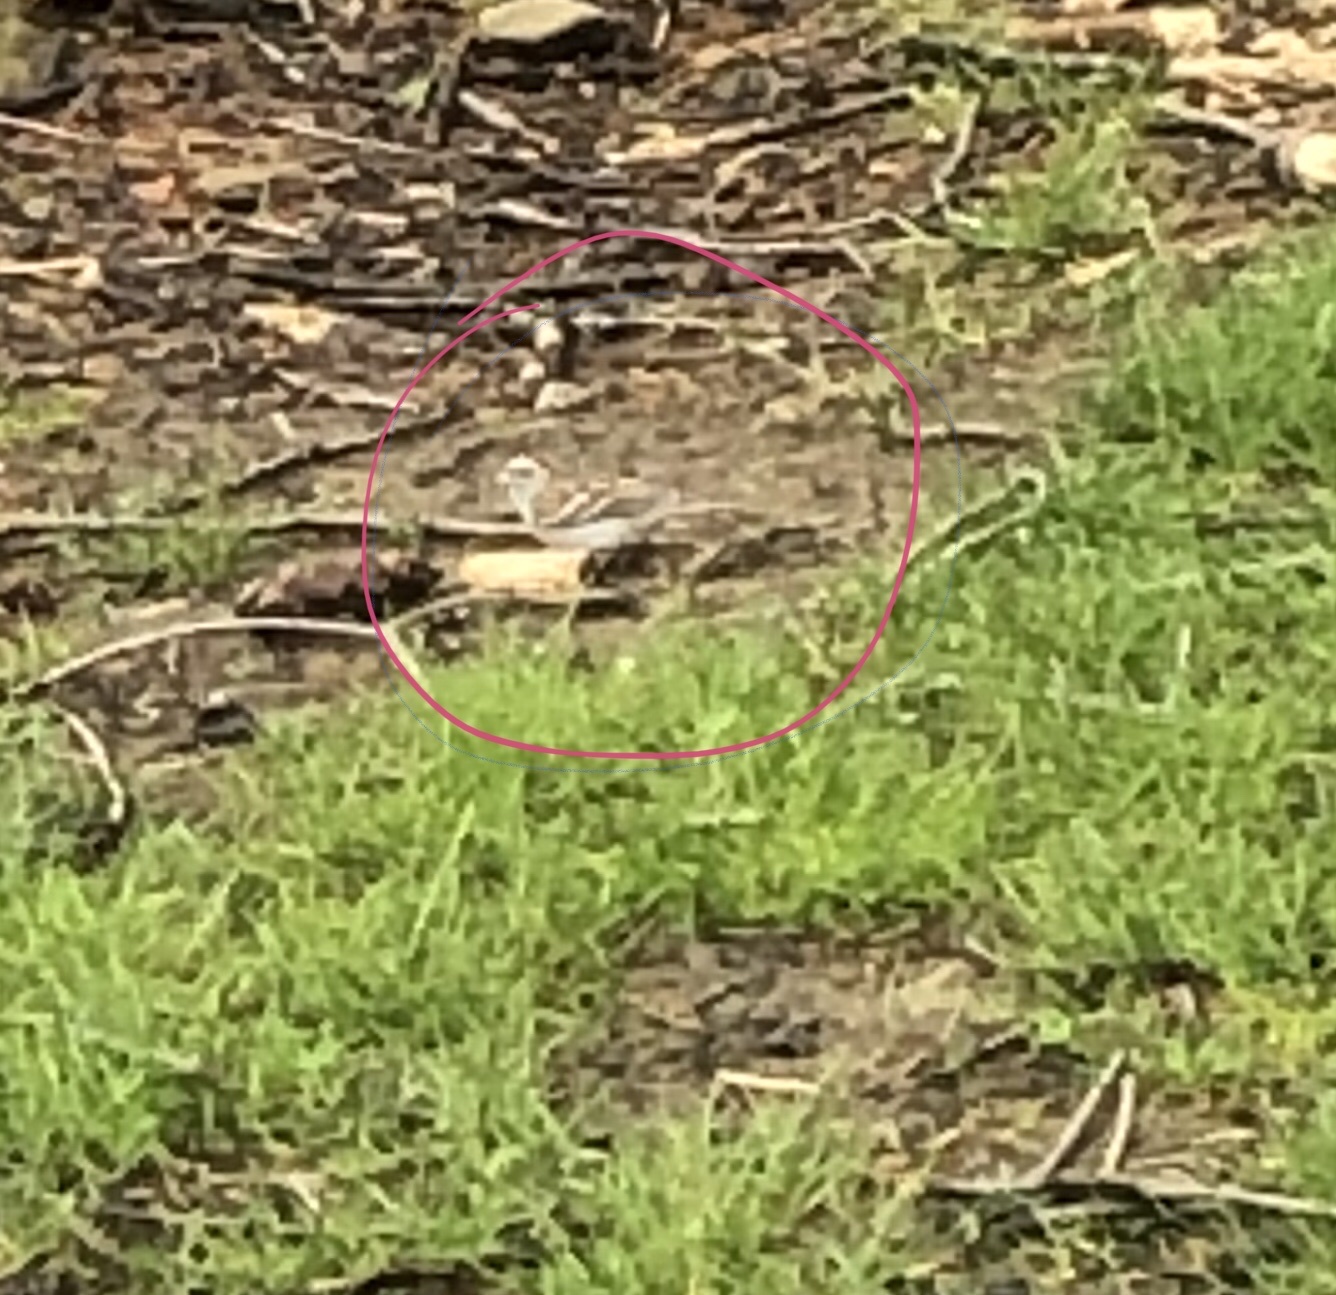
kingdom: Animalia
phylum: Chordata
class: Aves
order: Passeriformes
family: Passerellidae
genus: Spizella
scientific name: Spizella passerina
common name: Chipping sparrow
